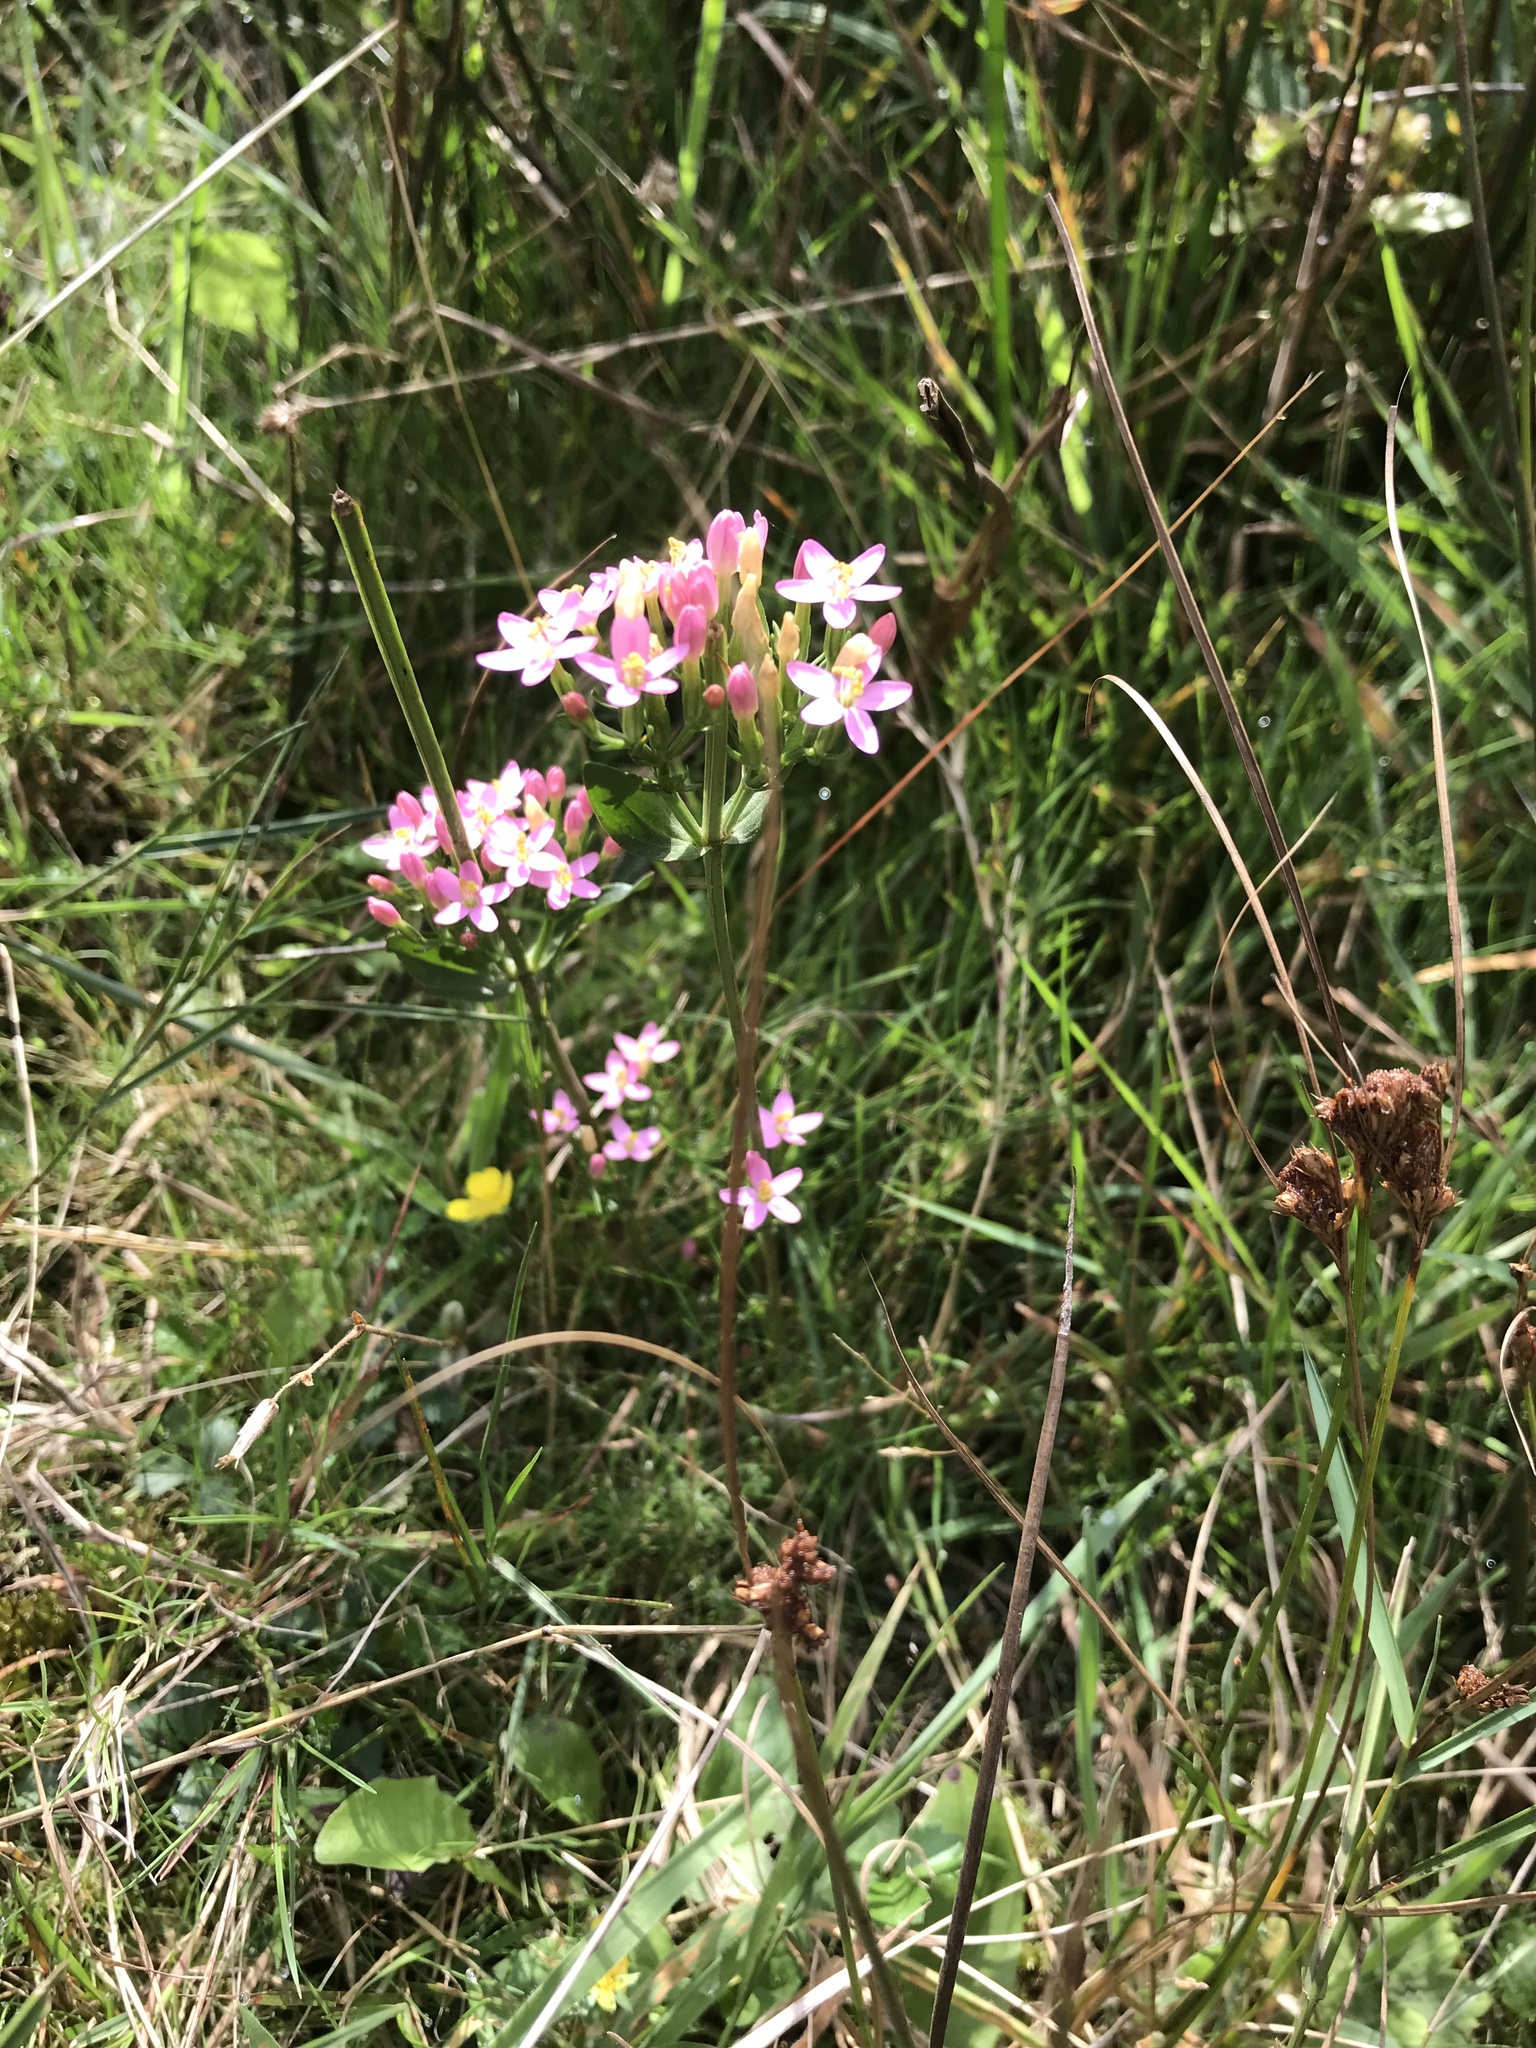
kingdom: Plantae
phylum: Tracheophyta
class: Magnoliopsida
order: Gentianales
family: Gentianaceae
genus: Centaurium
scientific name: Centaurium erythraea
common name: Common centaury
